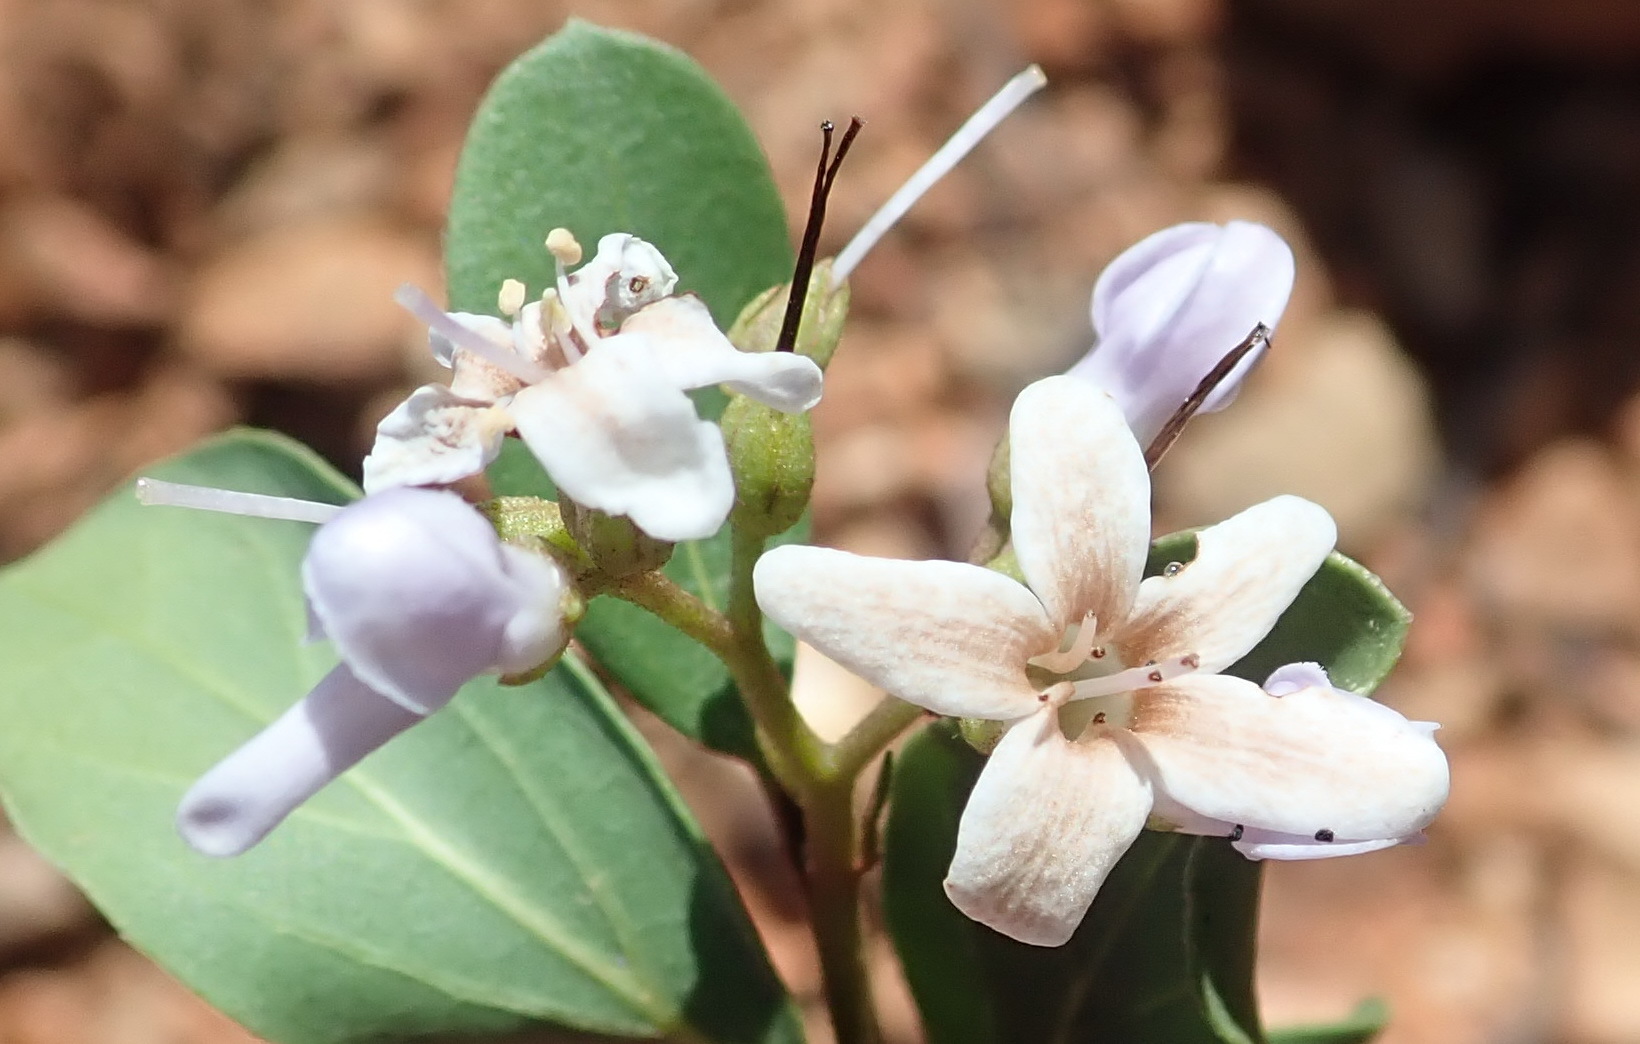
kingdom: Plantae
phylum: Tracheophyta
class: Magnoliopsida
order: Boraginales
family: Ehretiaceae
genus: Ehretia
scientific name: Ehretia rigida
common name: Cape lilac
